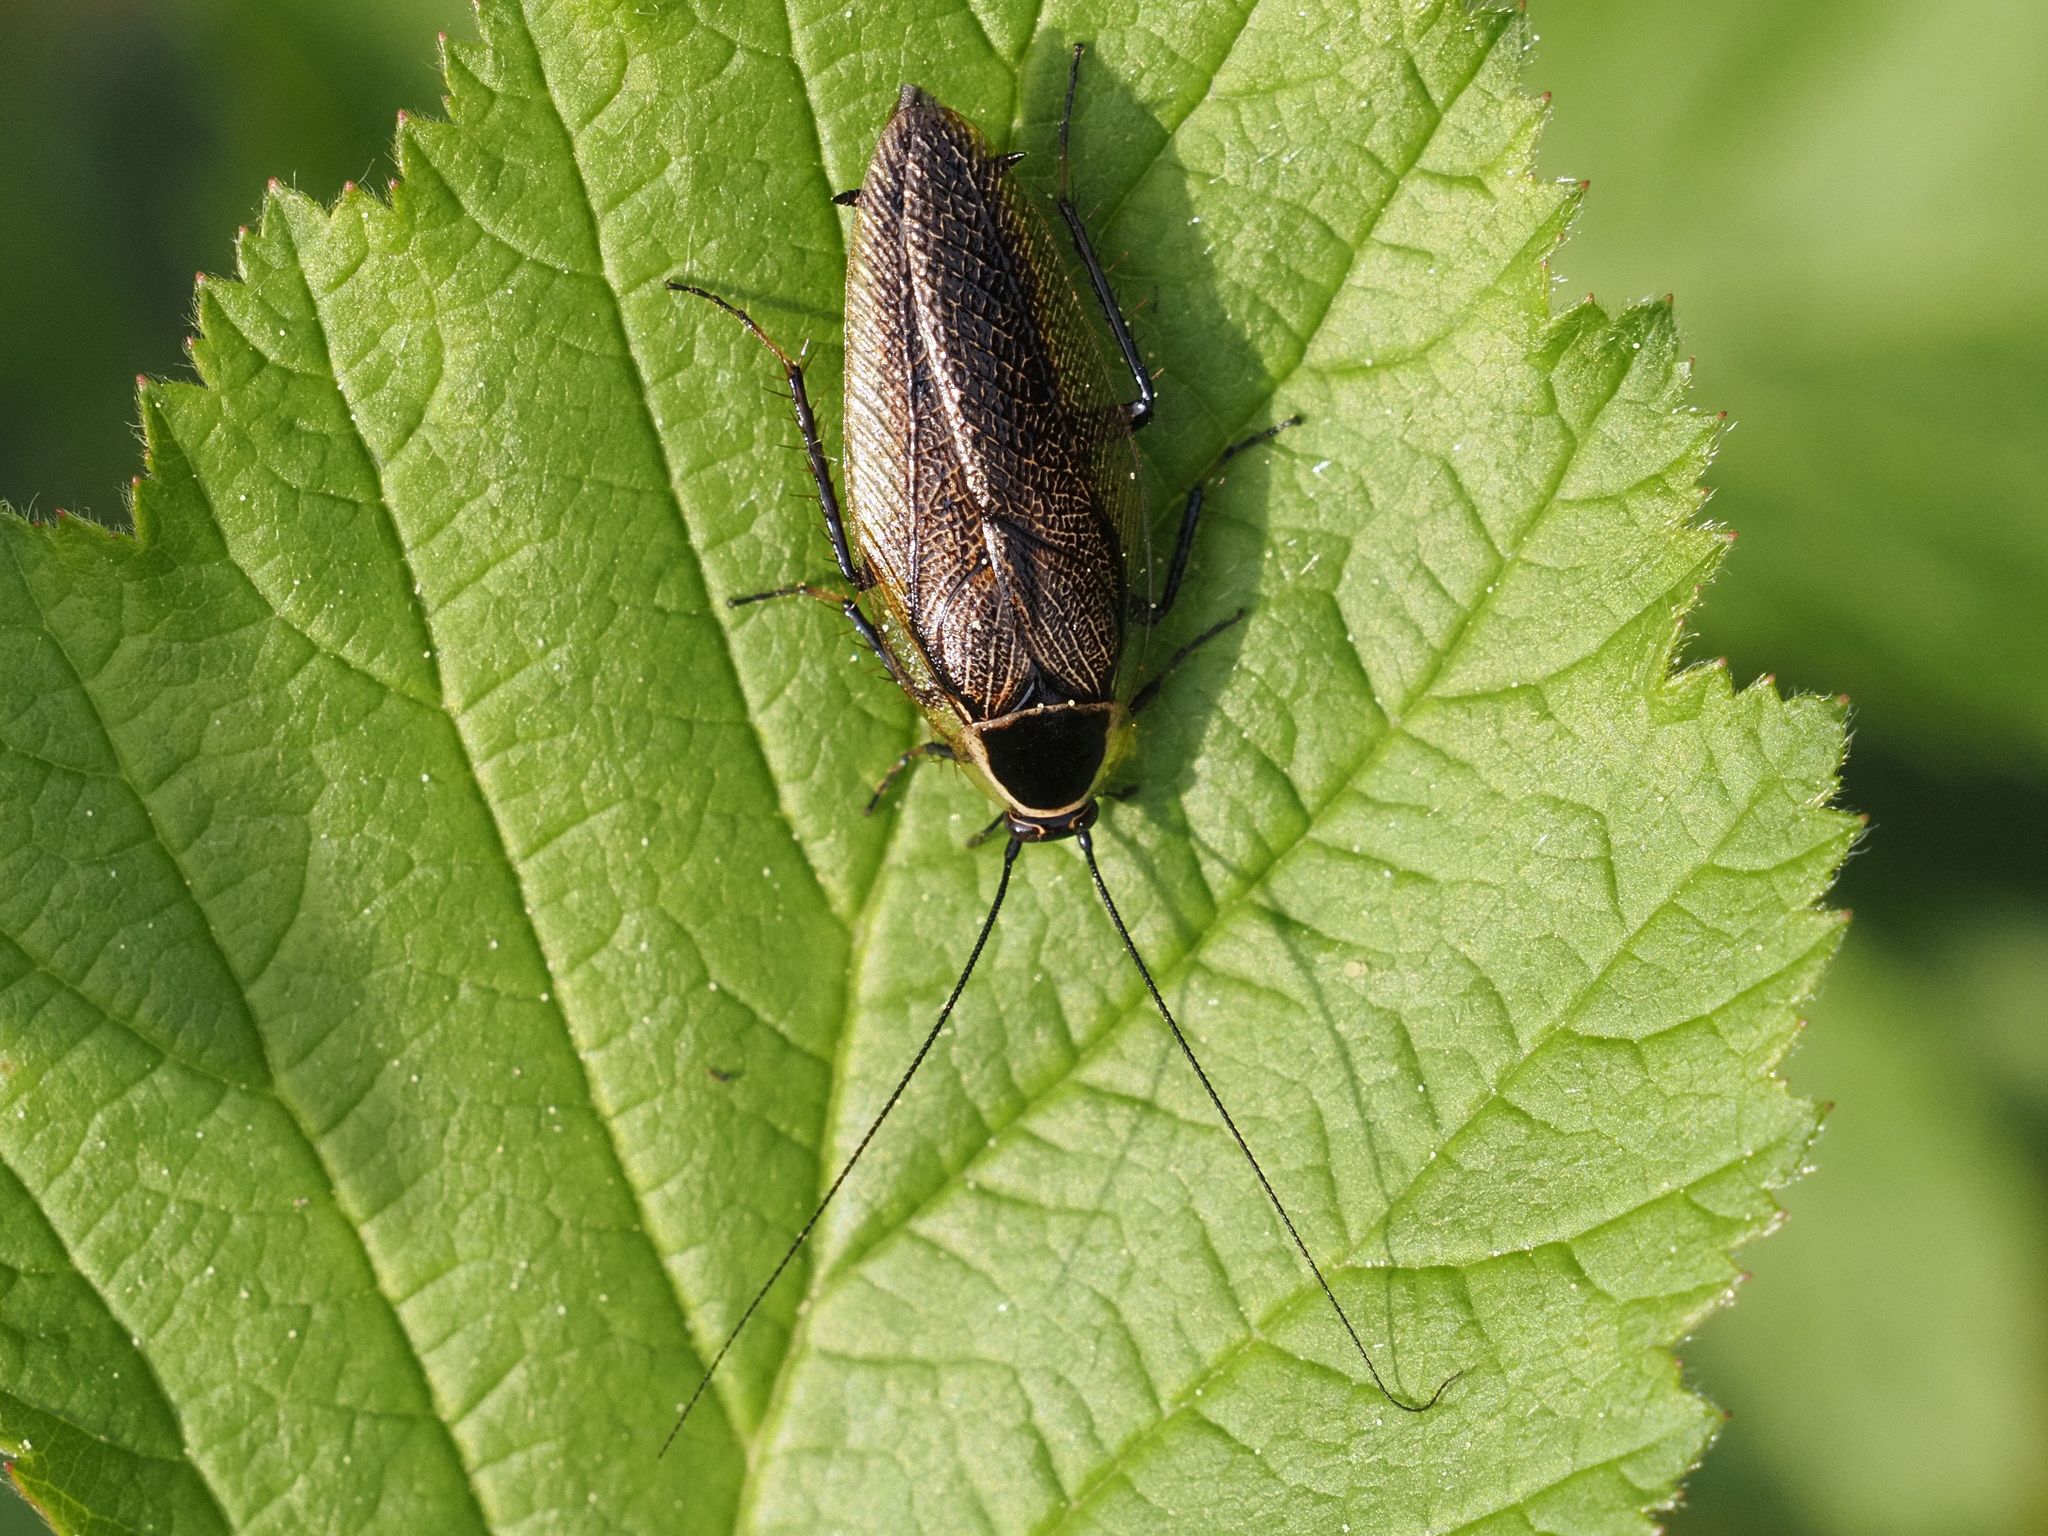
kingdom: Animalia
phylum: Arthropoda
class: Insecta
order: Blattodea
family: Ectobiidae
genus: Ectobius
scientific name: Ectobius sylvestris
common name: Forest cockroach
